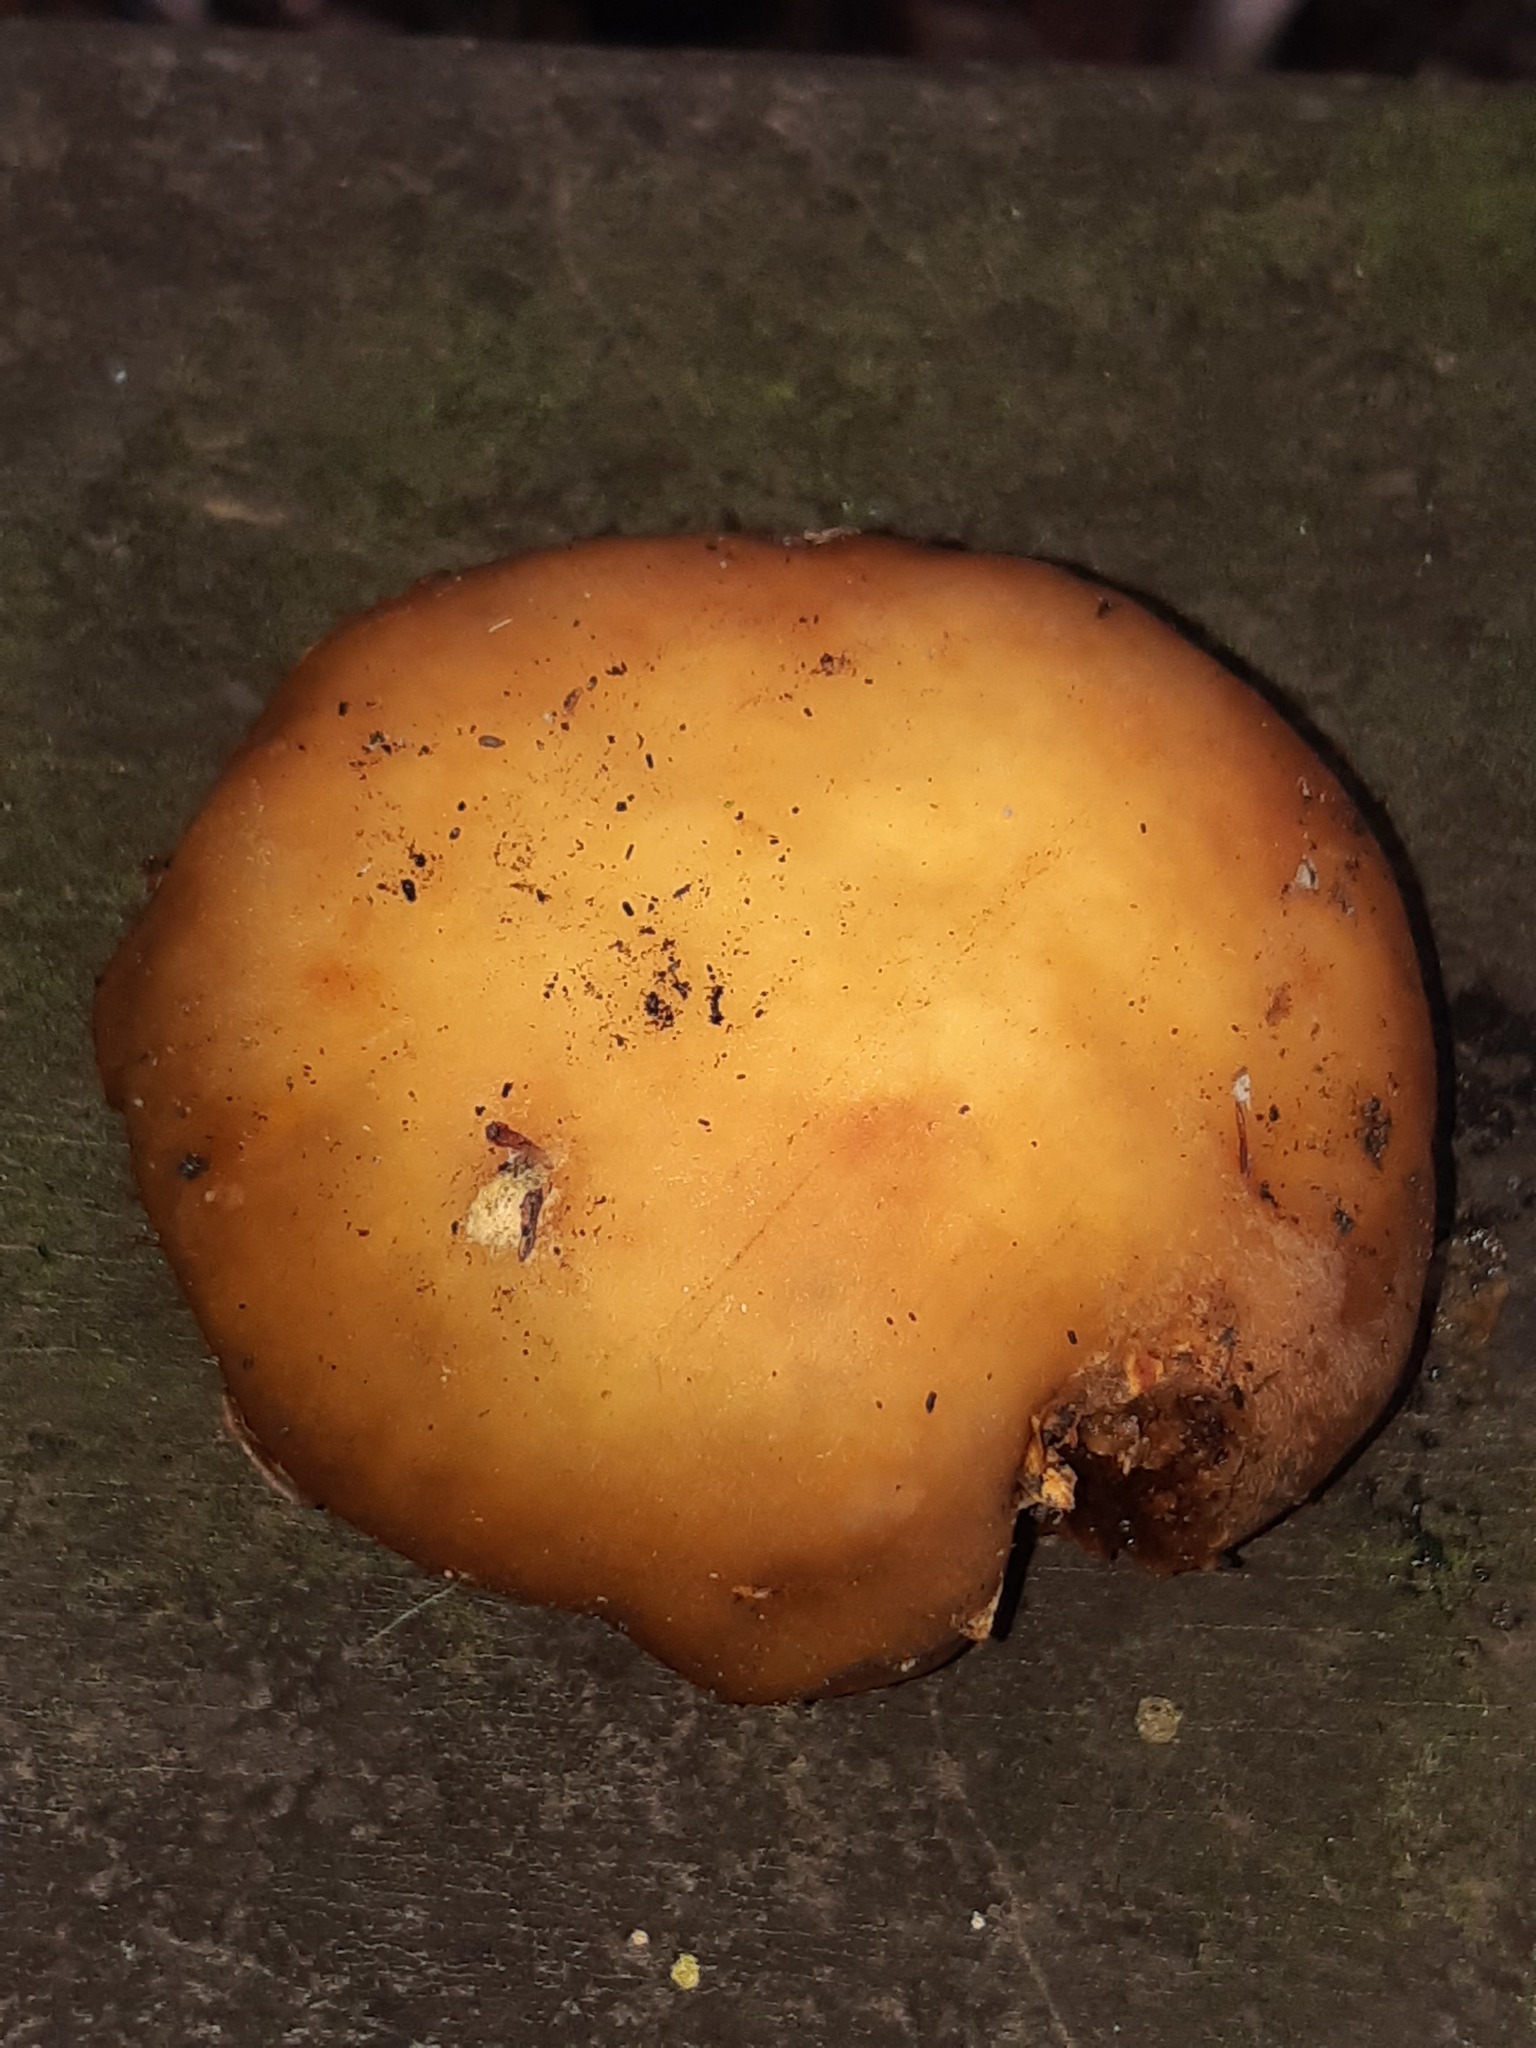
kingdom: Fungi
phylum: Basidiomycota
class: Agaricomycetes
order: Agaricales
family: Cortinariaceae
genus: Cortinarius
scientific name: Cortinarius epiphaeus
